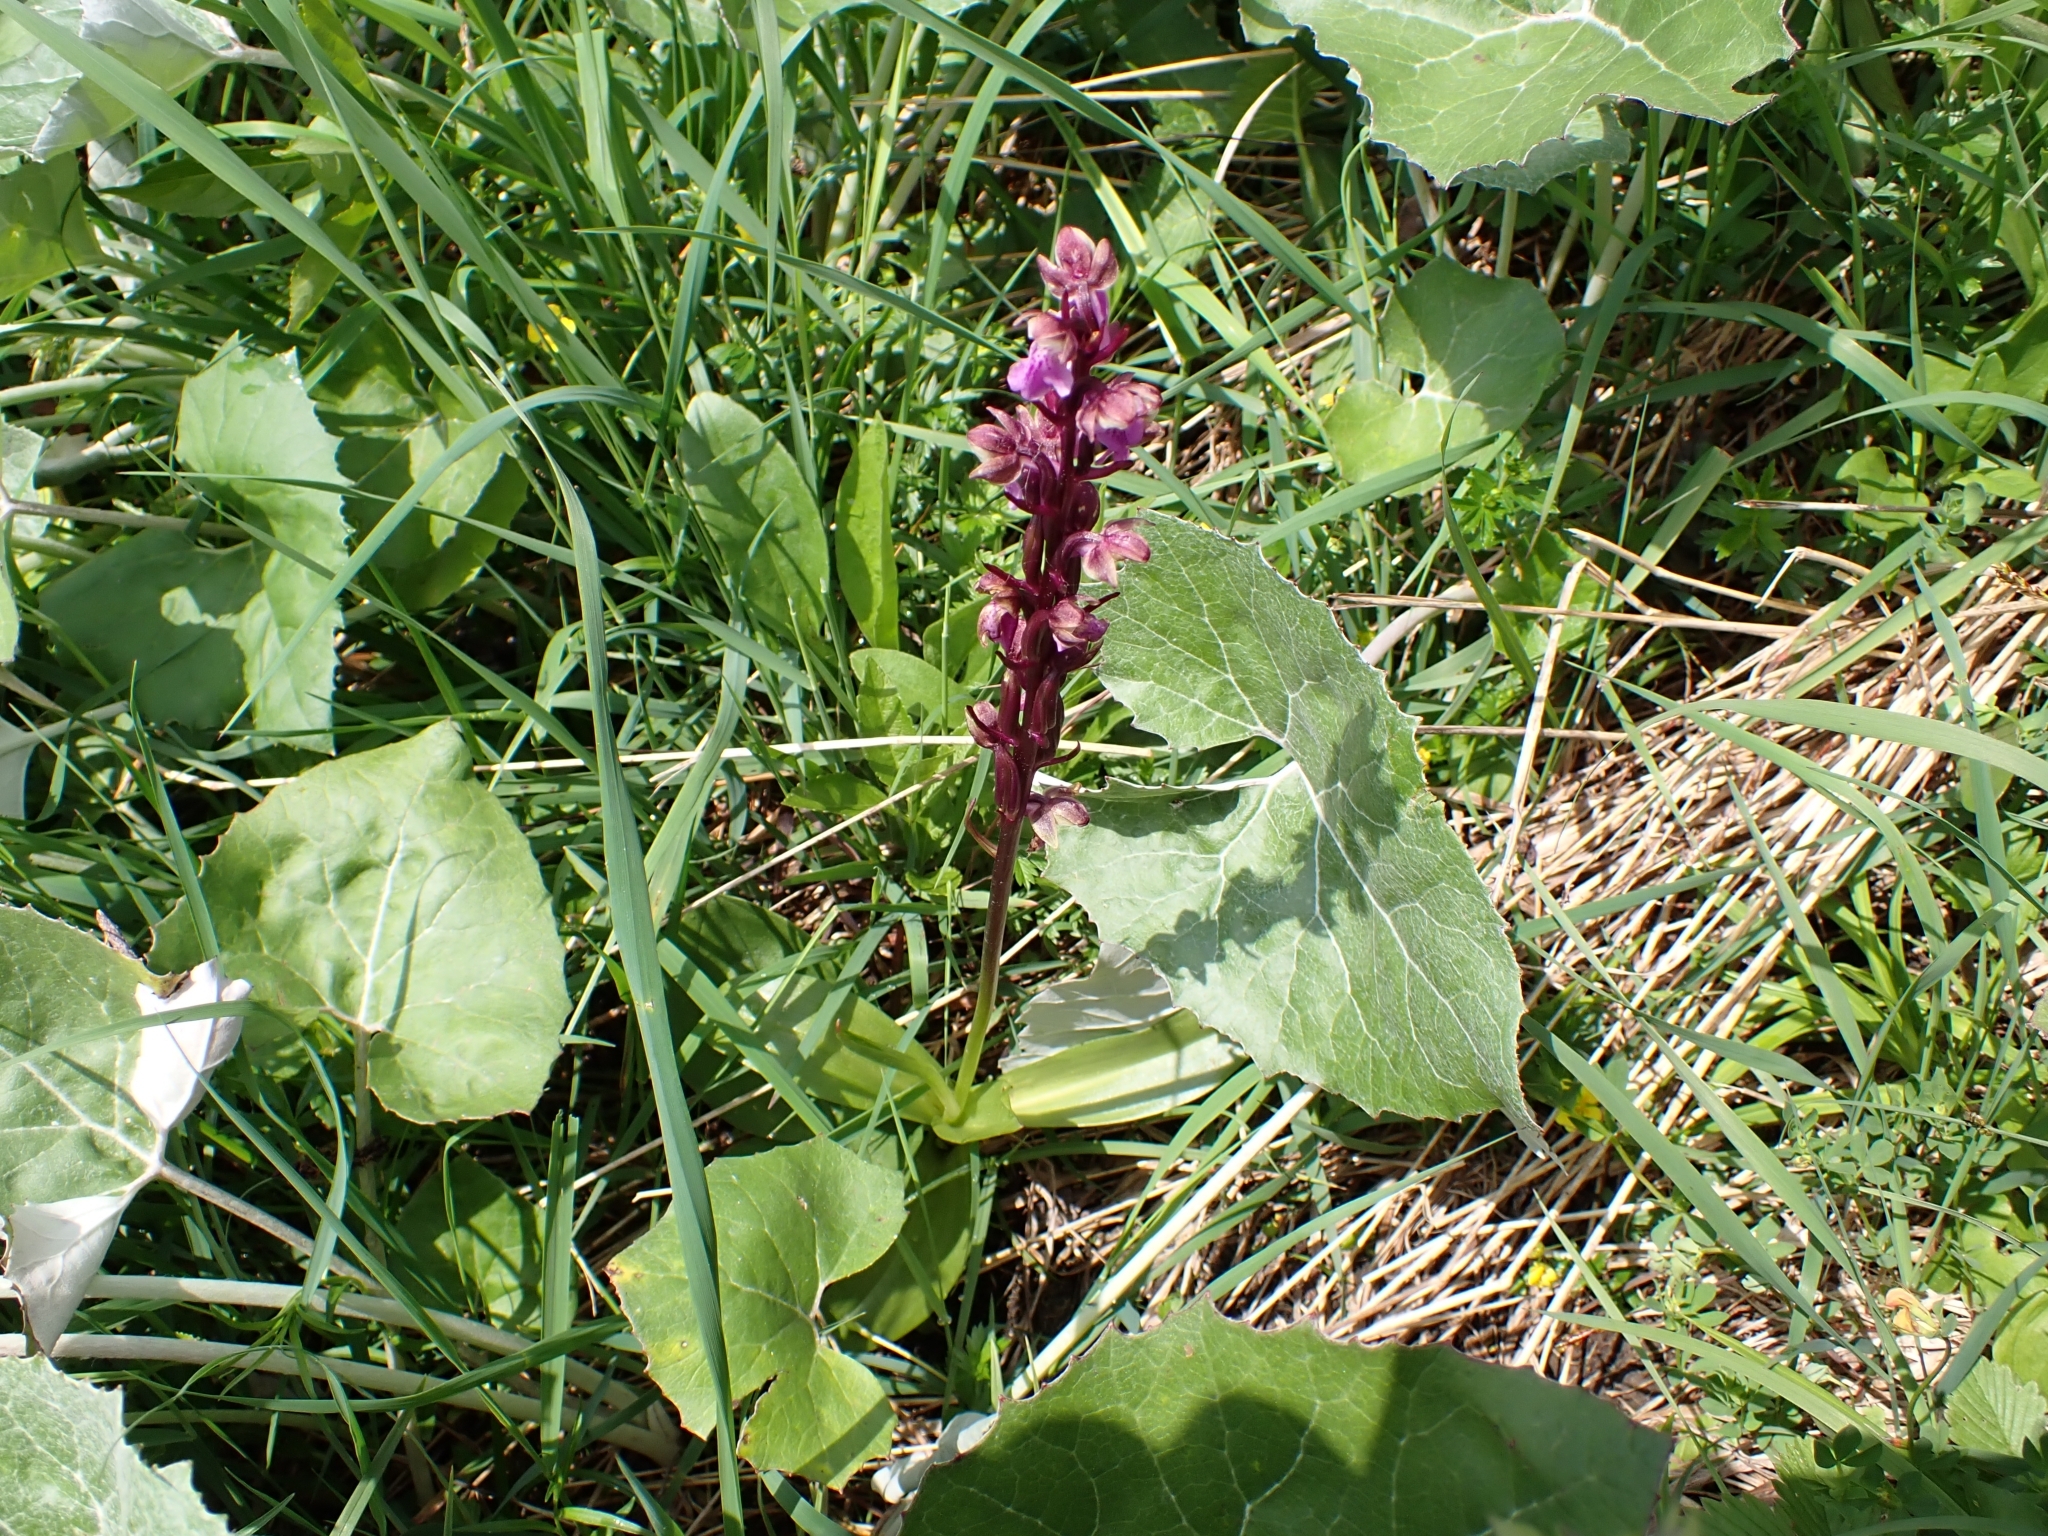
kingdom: Plantae
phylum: Tracheophyta
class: Liliopsida
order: Asparagales
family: Orchidaceae
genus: Orchis
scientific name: Orchis spitzelii
